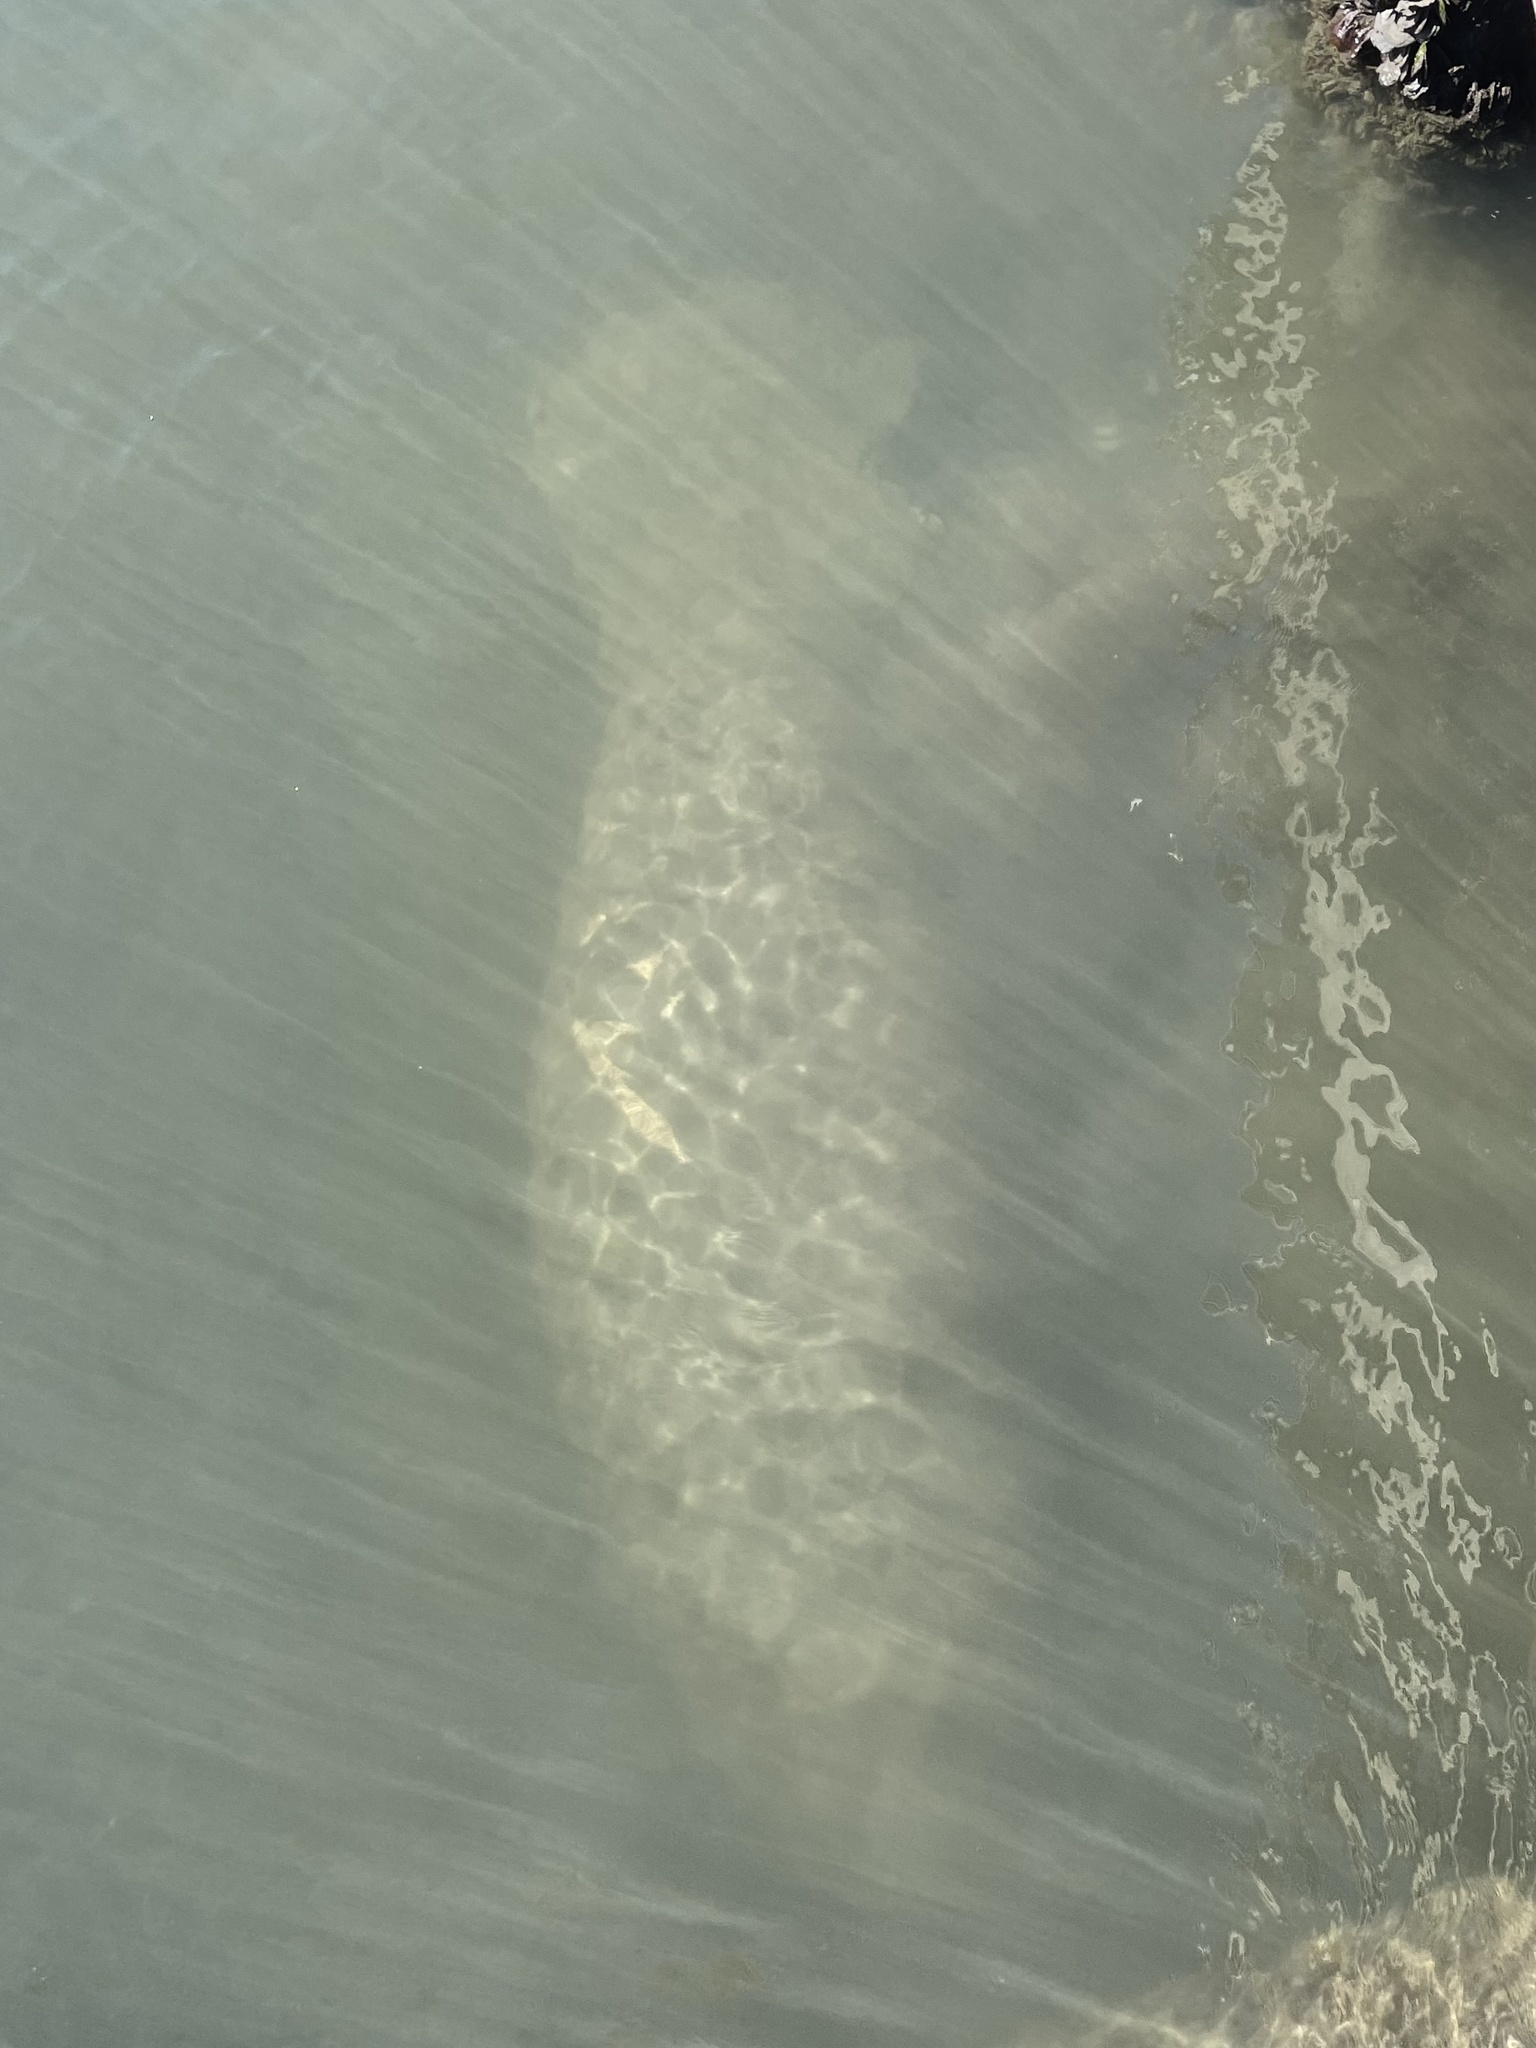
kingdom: Animalia
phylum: Chordata
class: Mammalia
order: Sirenia
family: Trichechidae
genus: Trichechus
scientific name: Trichechus manatus
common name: West indian manatee
